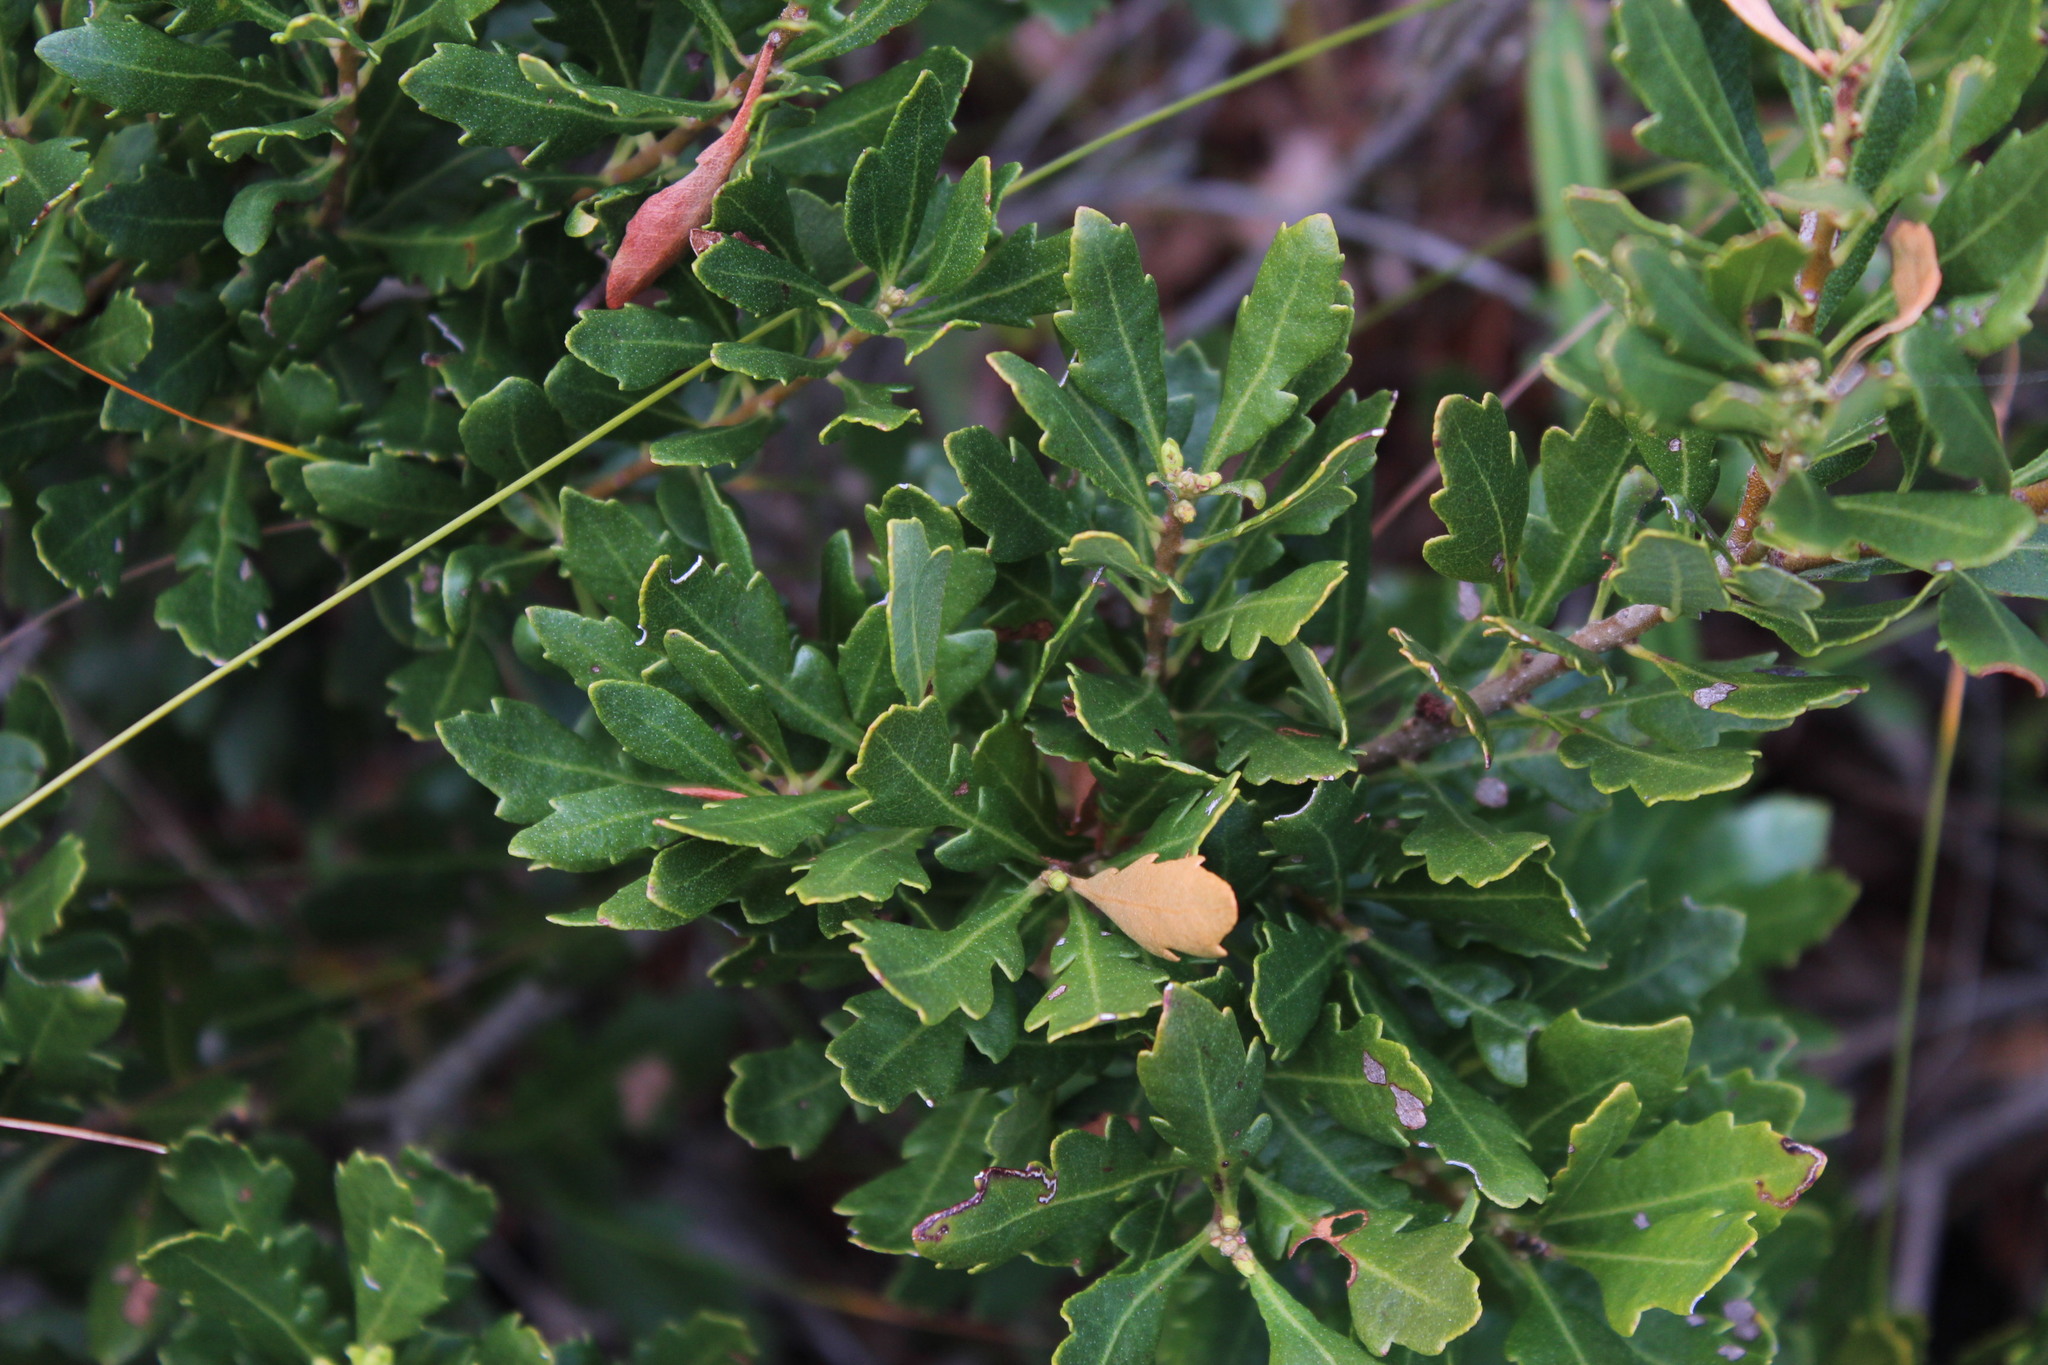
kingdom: Plantae
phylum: Tracheophyta
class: Magnoliopsida
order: Fagales
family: Myricaceae
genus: Morella
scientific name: Morella quercifolia
